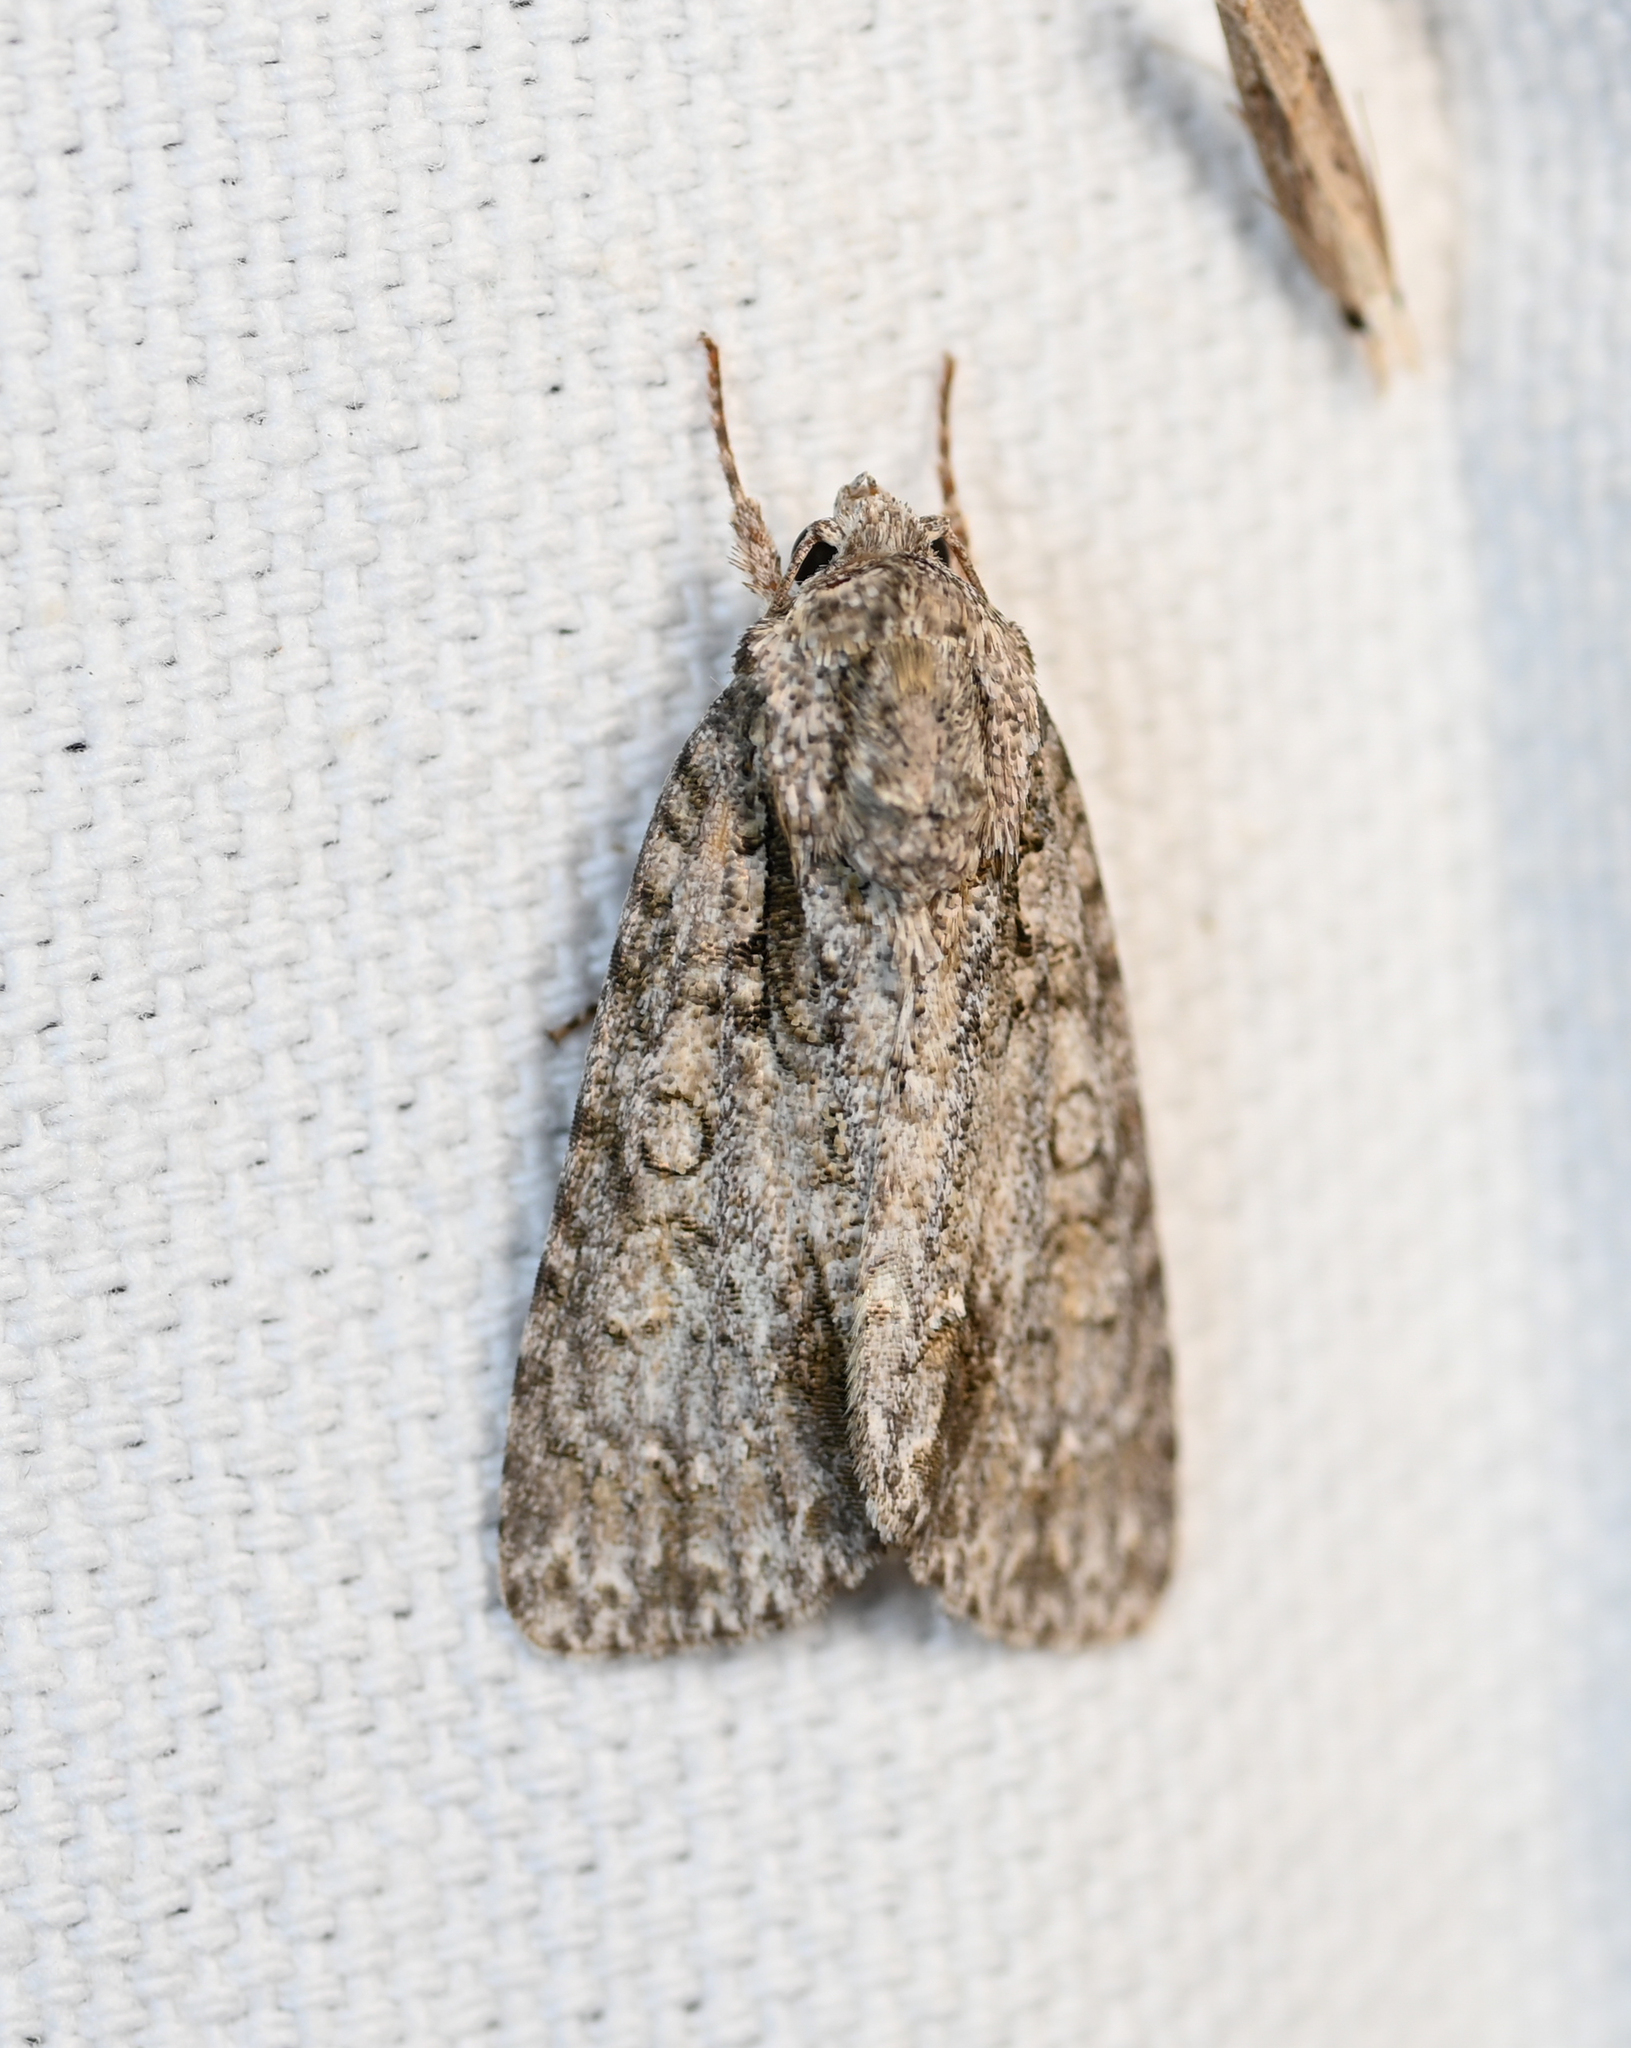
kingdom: Animalia
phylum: Arthropoda
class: Insecta
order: Lepidoptera
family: Noctuidae
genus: Acronicta
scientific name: Acronicta clarescens
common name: Clear dagger
